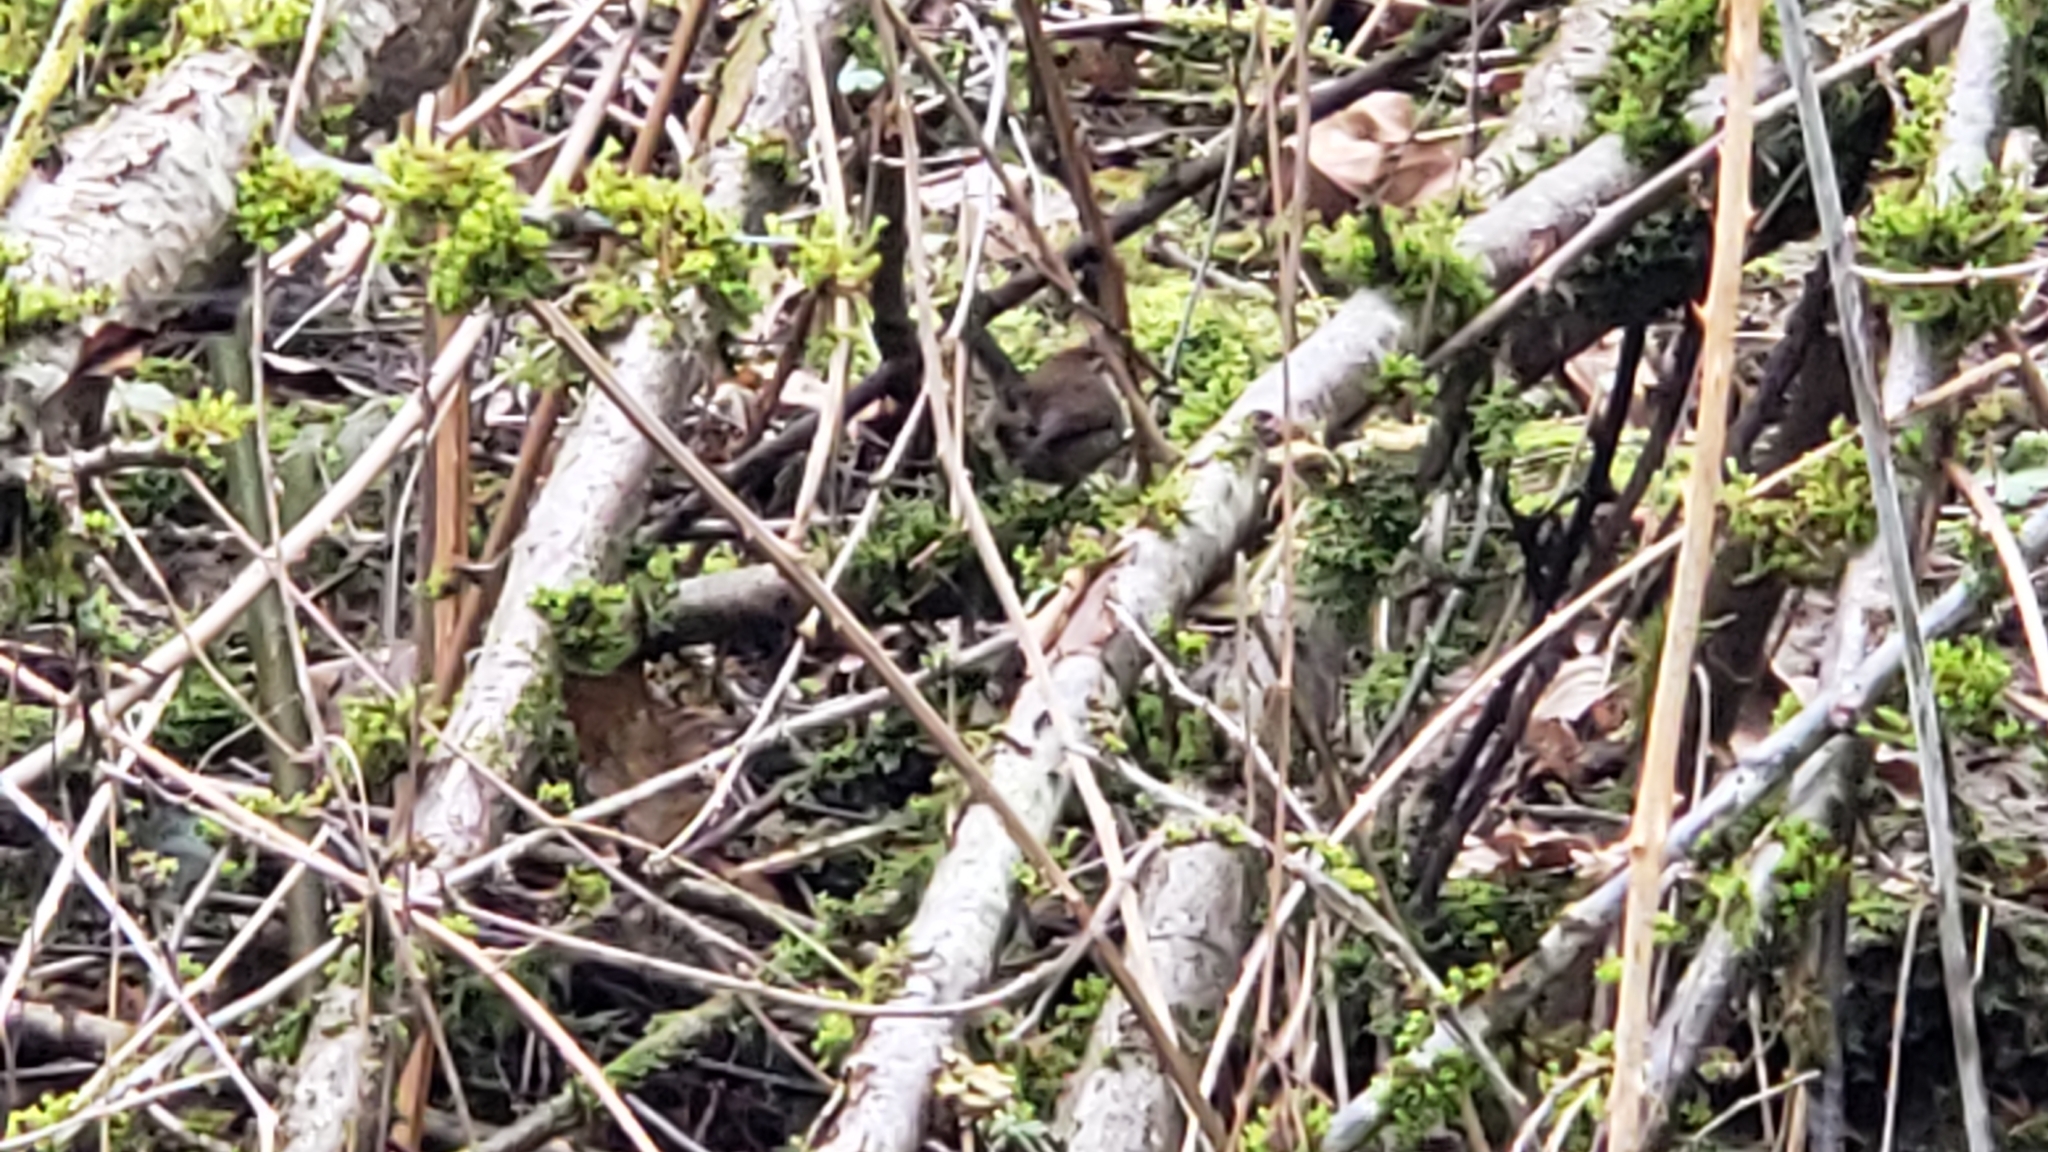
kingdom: Animalia
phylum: Chordata
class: Aves
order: Passeriformes
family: Troglodytidae
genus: Thryomanes
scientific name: Thryomanes bewickii
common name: Bewick's wren
